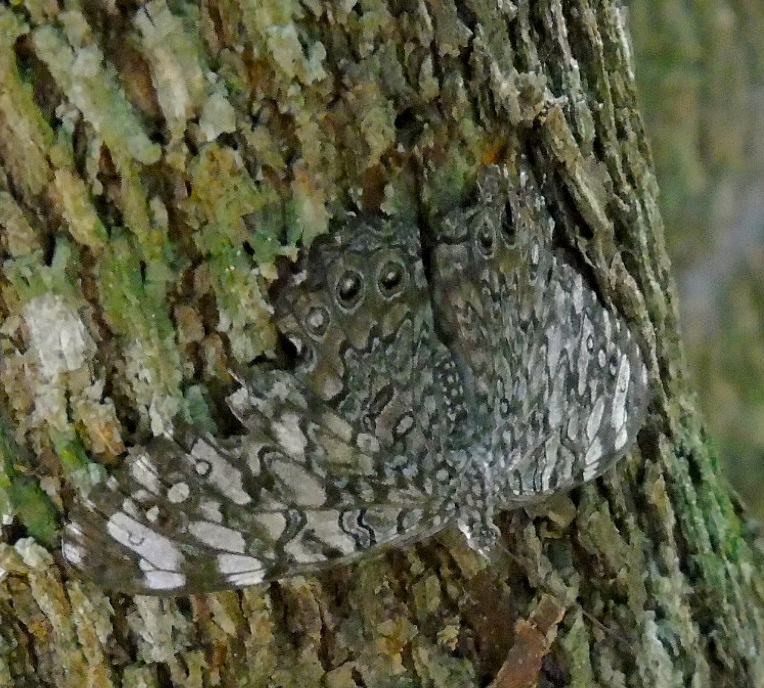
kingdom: Animalia
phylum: Arthropoda
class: Insecta
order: Lepidoptera
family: Nymphalidae
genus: Hamadryas
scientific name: Hamadryas februa
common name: Gray cracker
